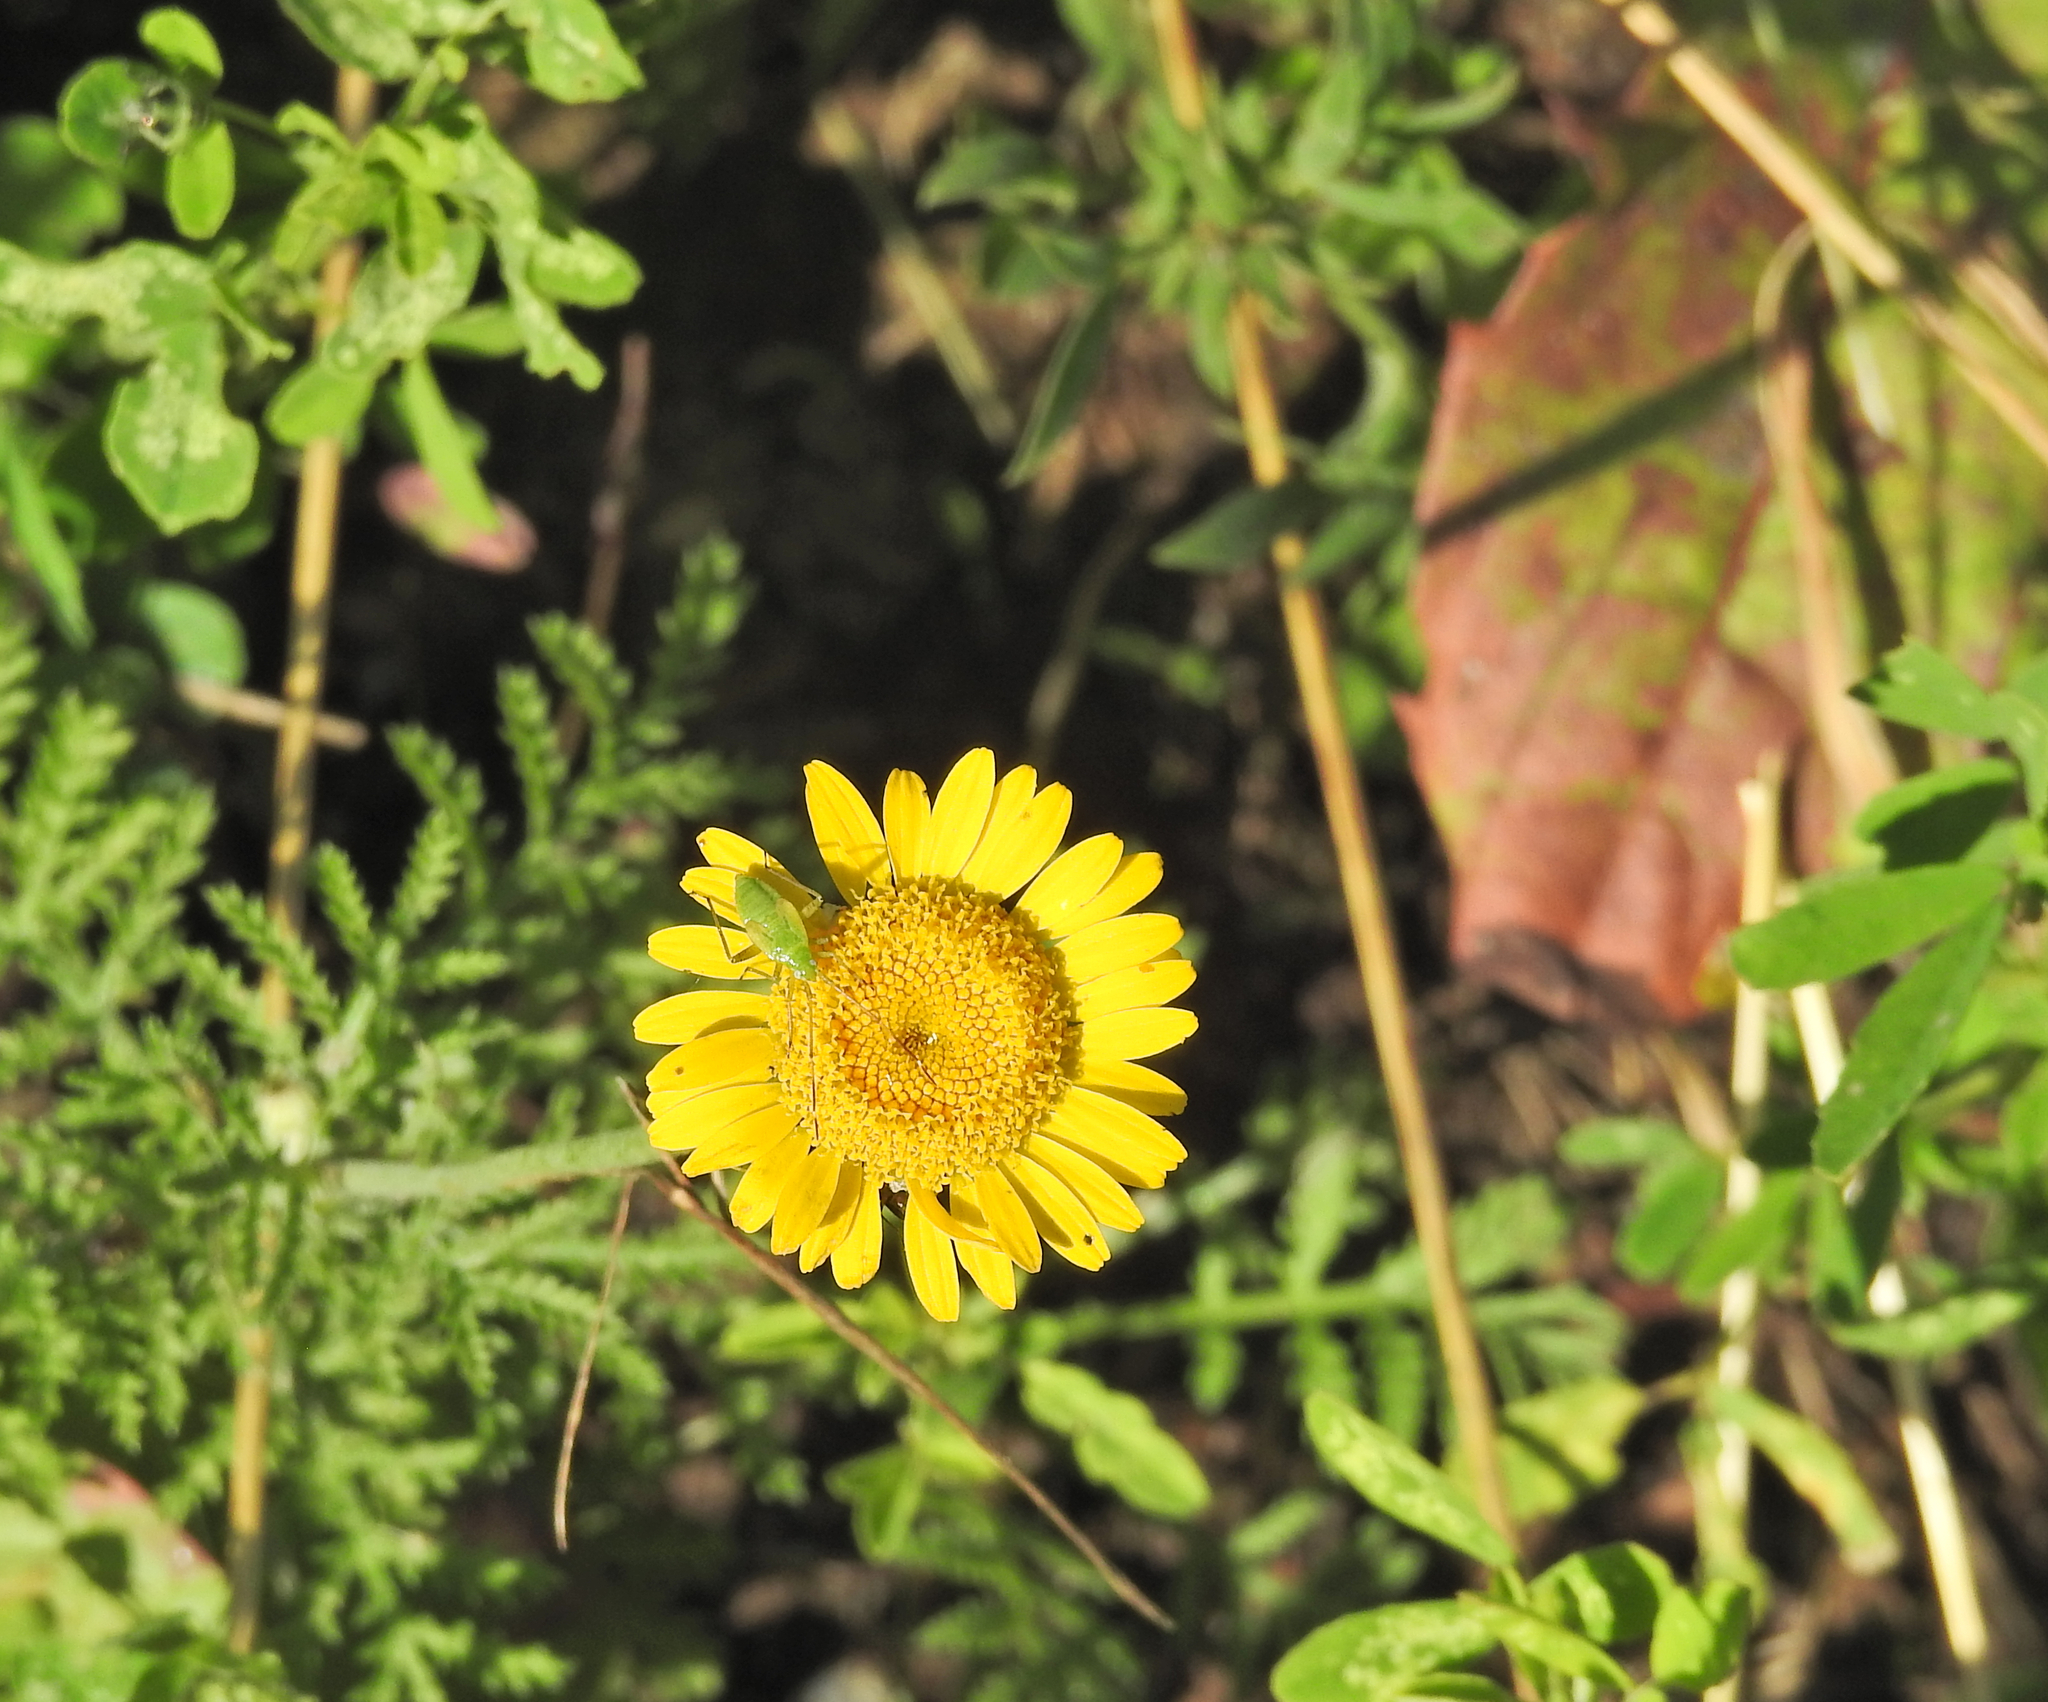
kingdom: Plantae
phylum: Tracheophyta
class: Magnoliopsida
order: Asterales
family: Asteraceae
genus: Cota
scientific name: Cota tinctoria
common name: Golden chamomile
